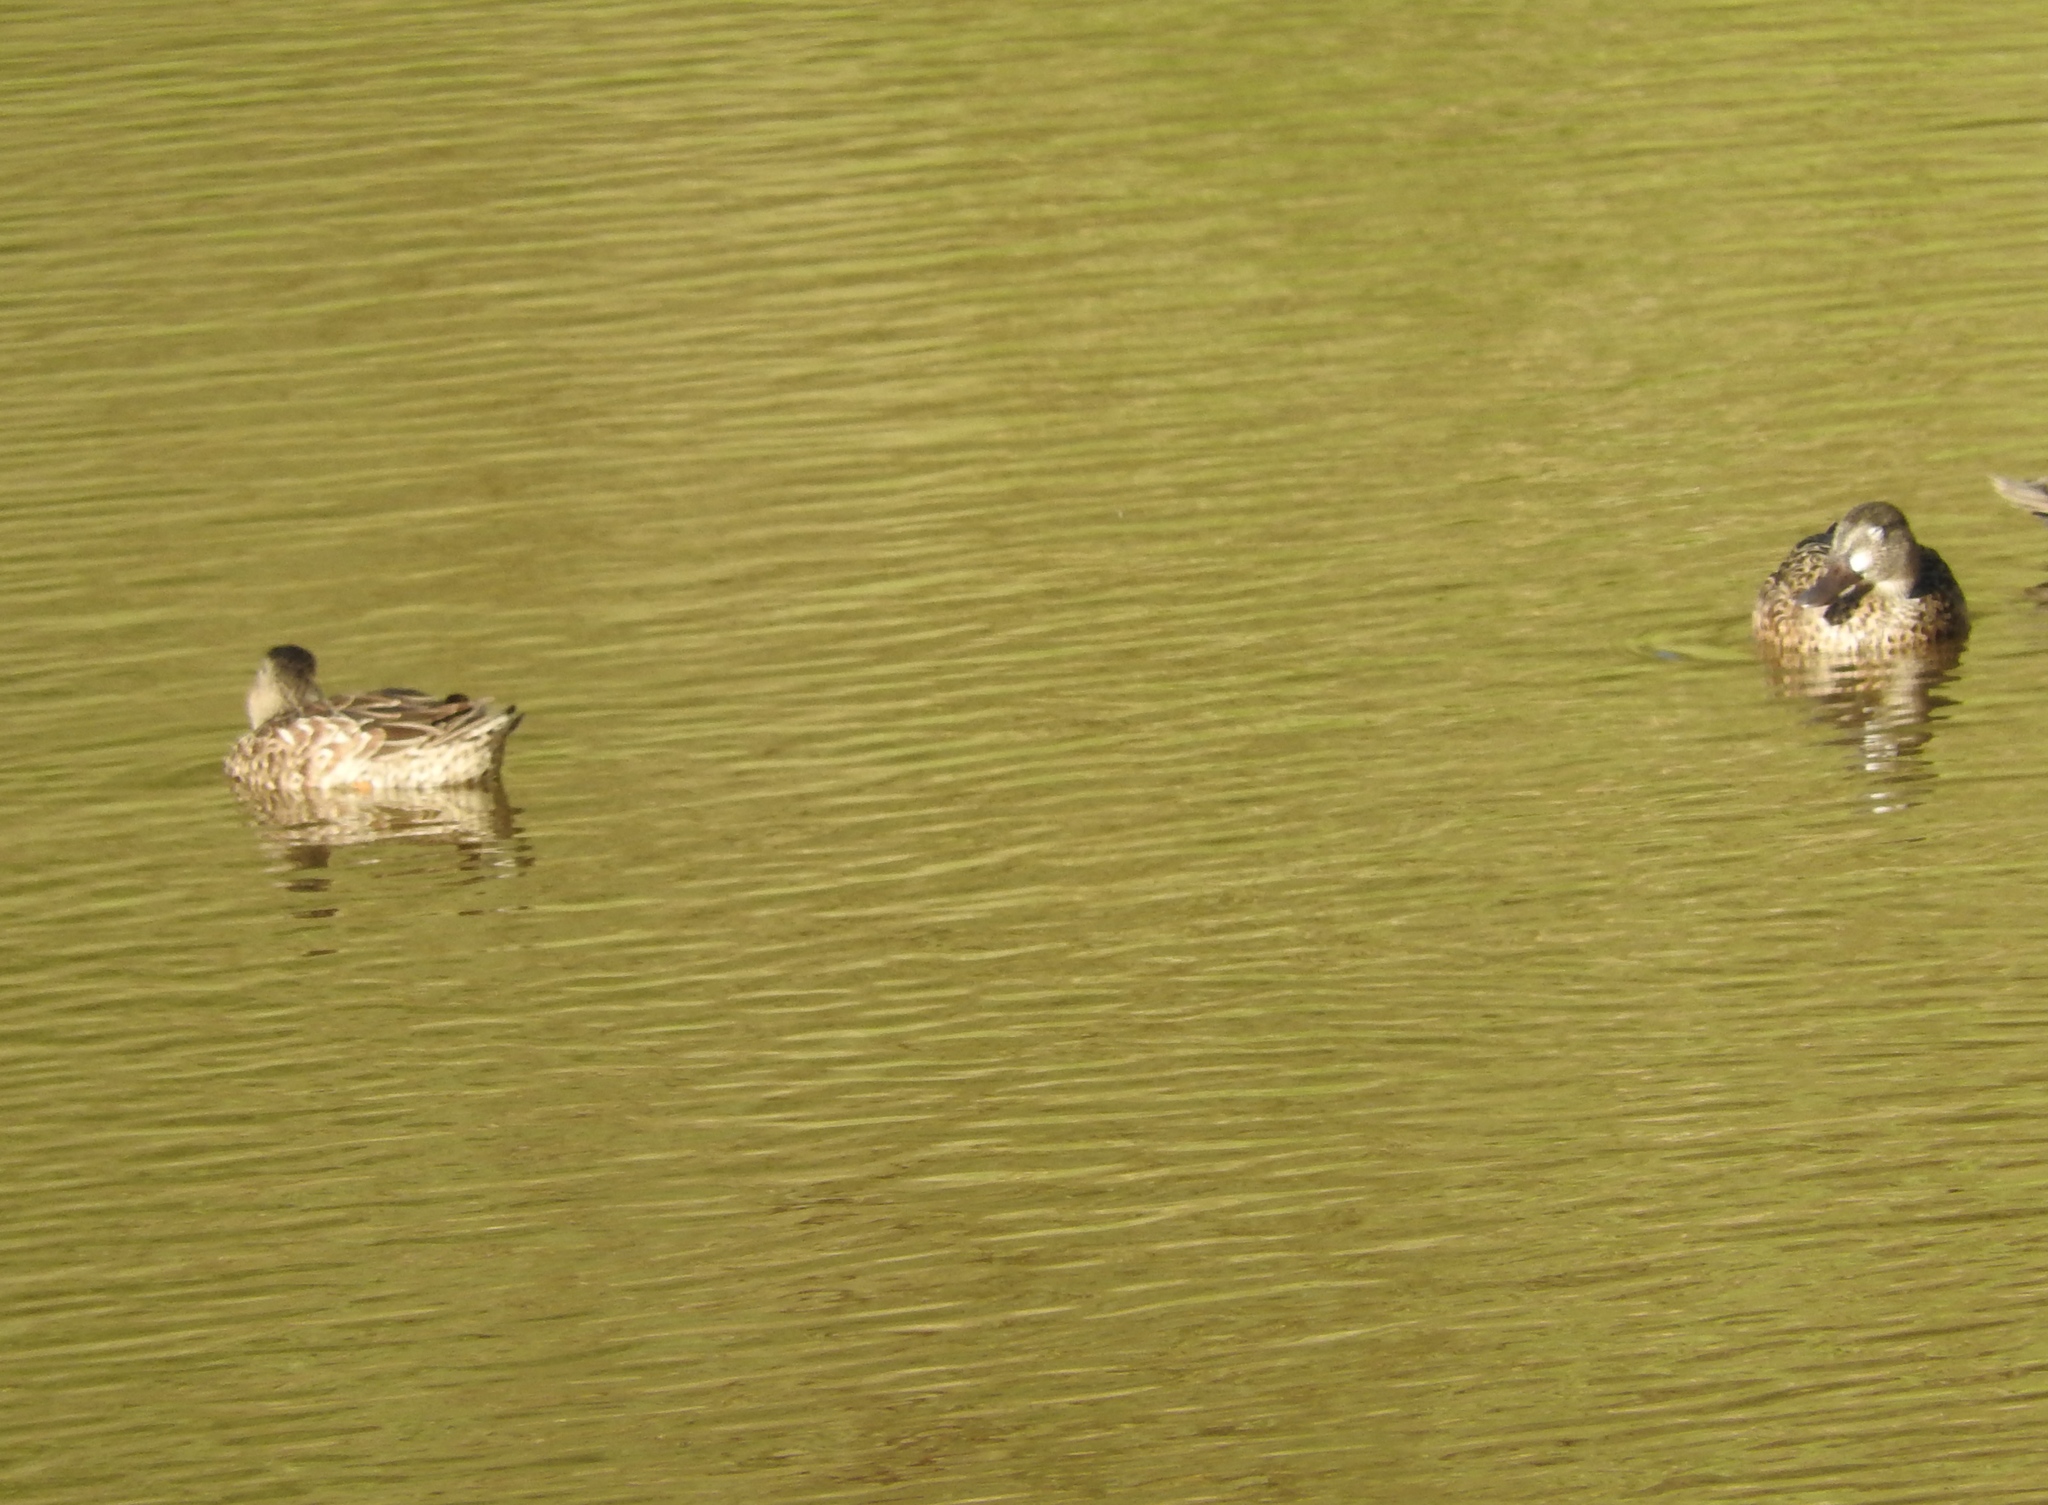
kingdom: Animalia
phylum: Chordata
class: Aves
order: Anseriformes
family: Anatidae
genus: Spatula
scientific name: Spatula discors
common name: Blue-winged teal
